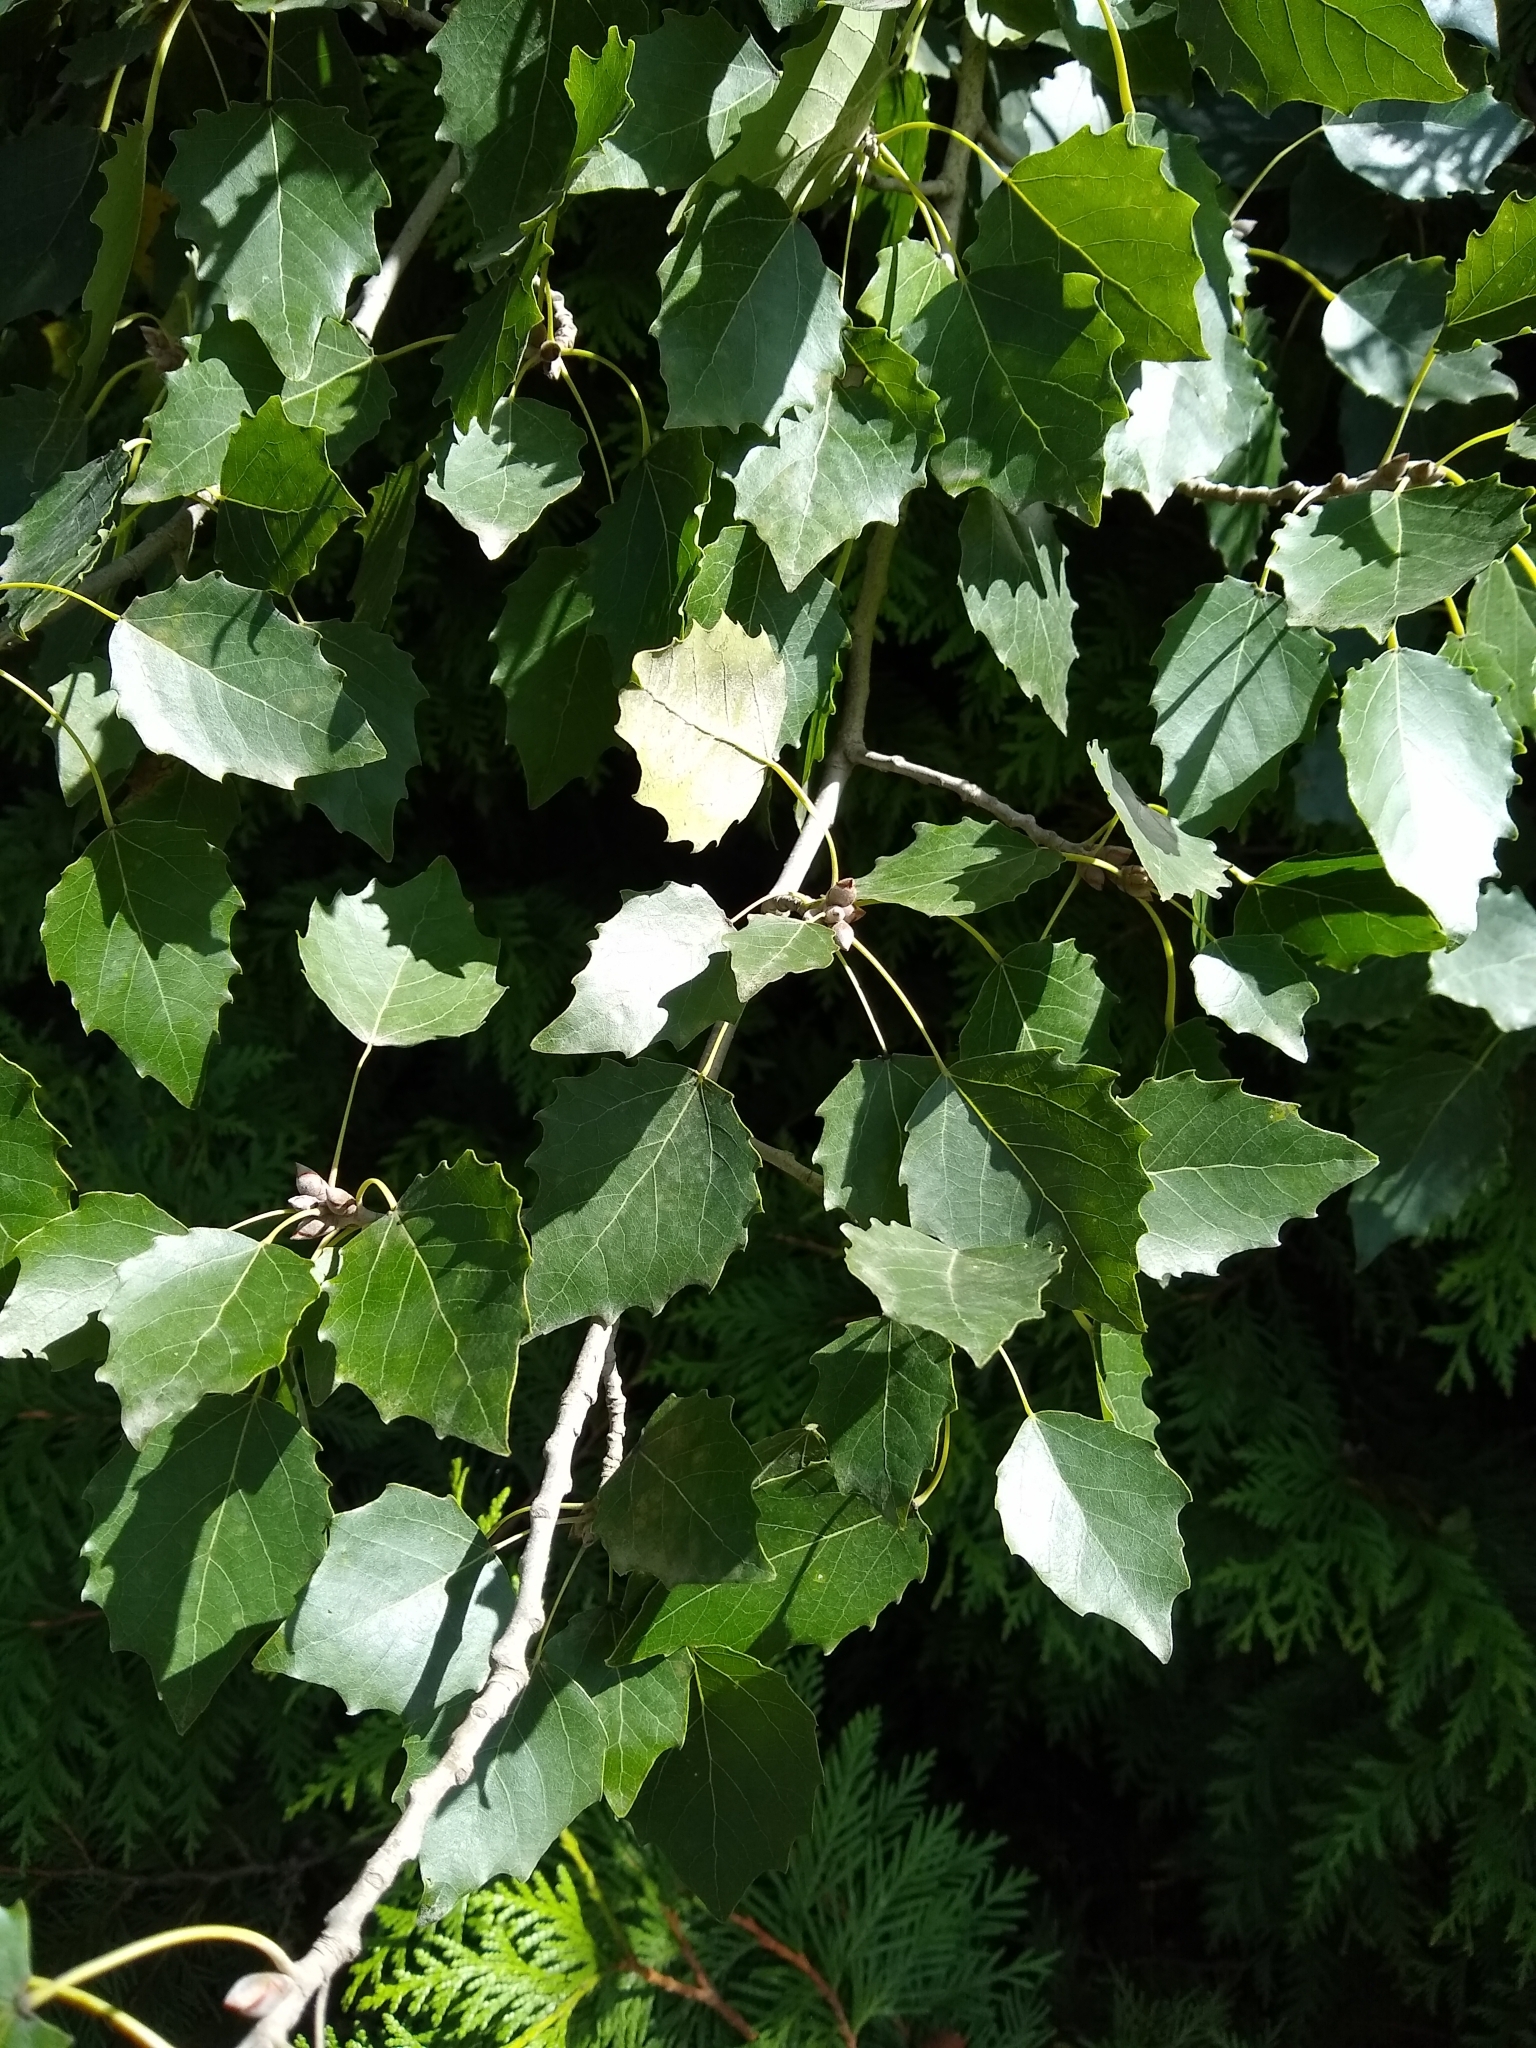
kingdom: Plantae
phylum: Tracheophyta
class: Magnoliopsida
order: Malpighiales
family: Salicaceae
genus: Populus
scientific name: Populus grandidentata
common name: Bigtooth aspen
